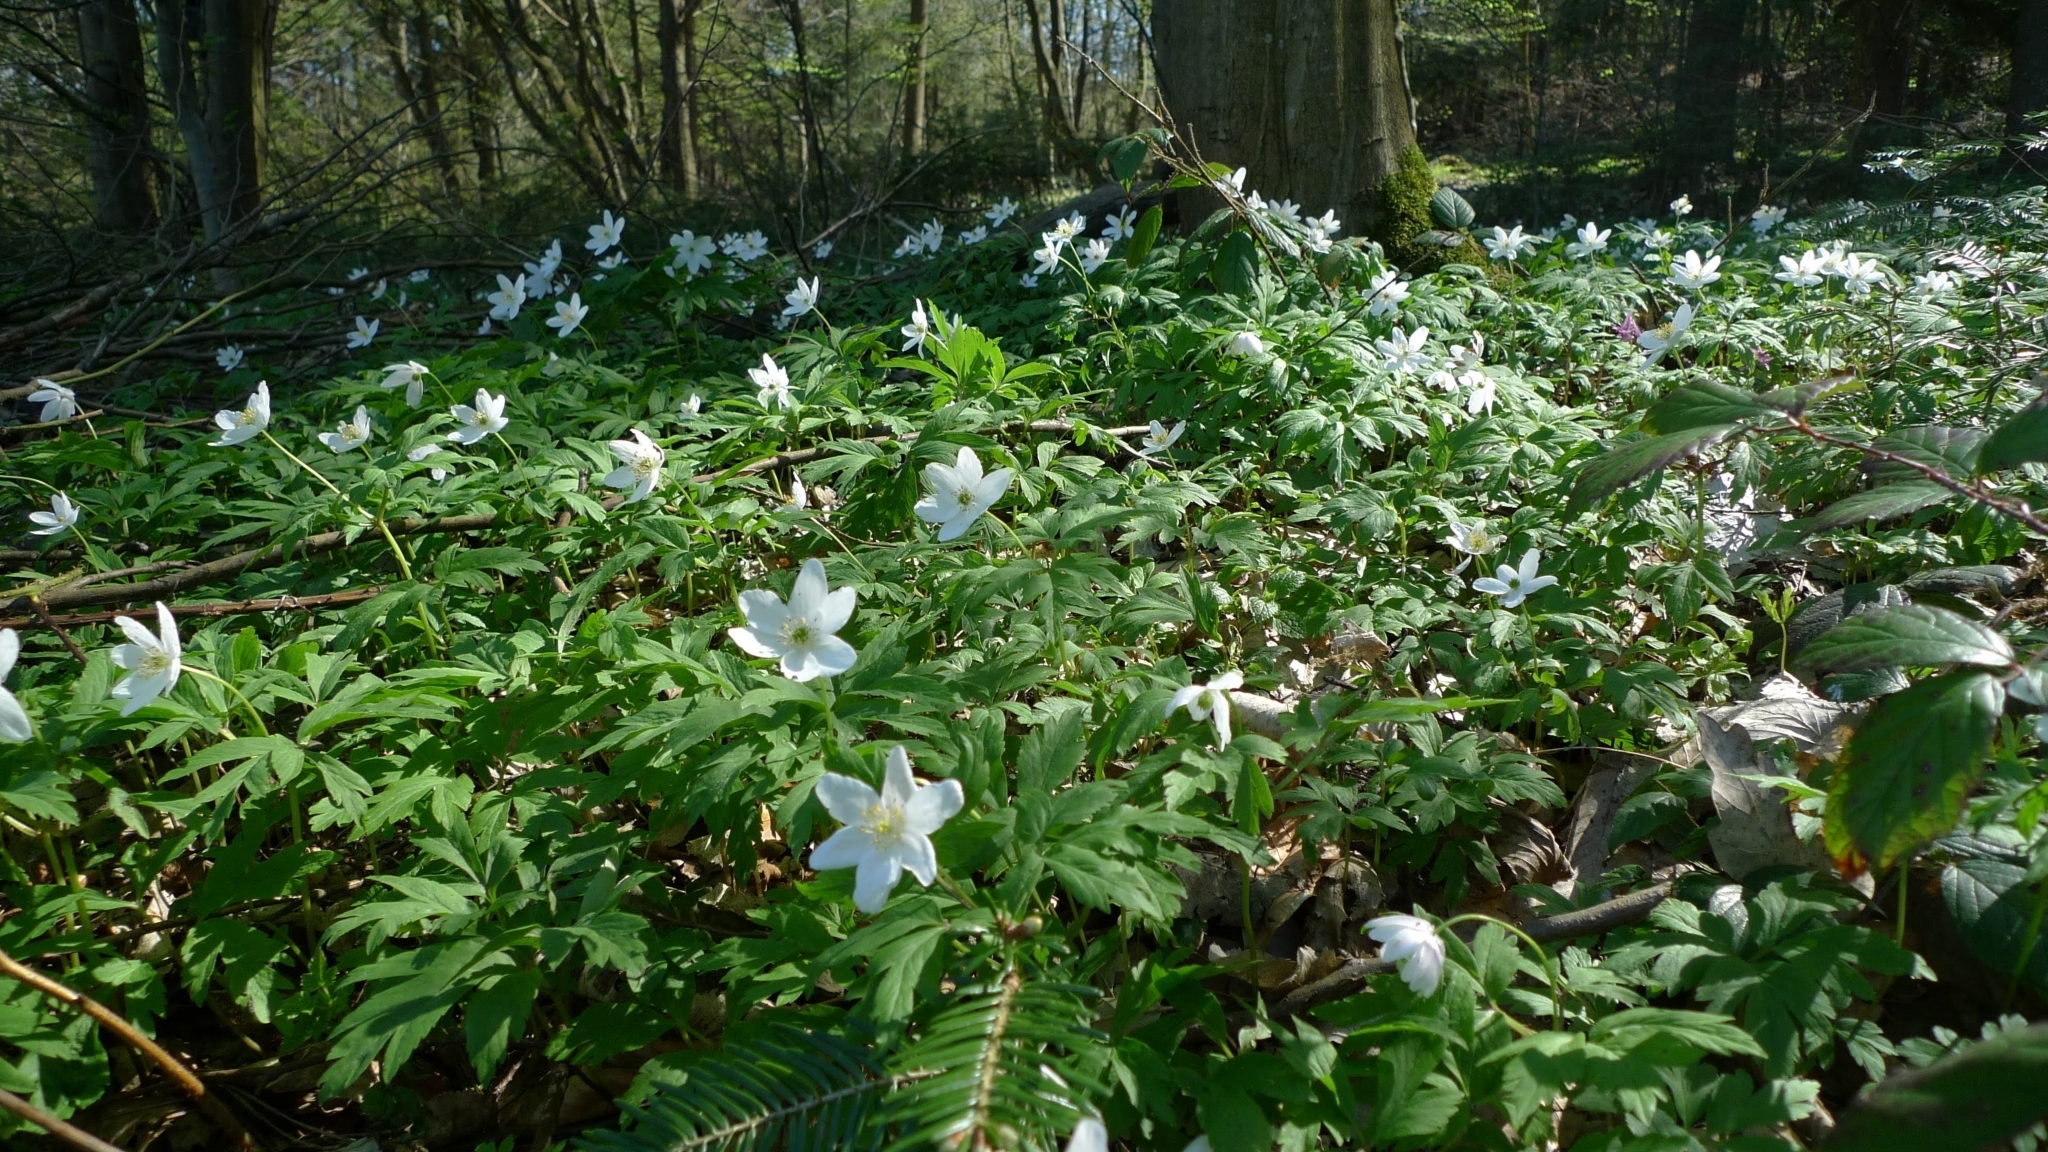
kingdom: Plantae
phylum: Tracheophyta
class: Magnoliopsida
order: Ranunculales
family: Ranunculaceae
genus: Anemone
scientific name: Anemone nemorosa
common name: Wood anemone
